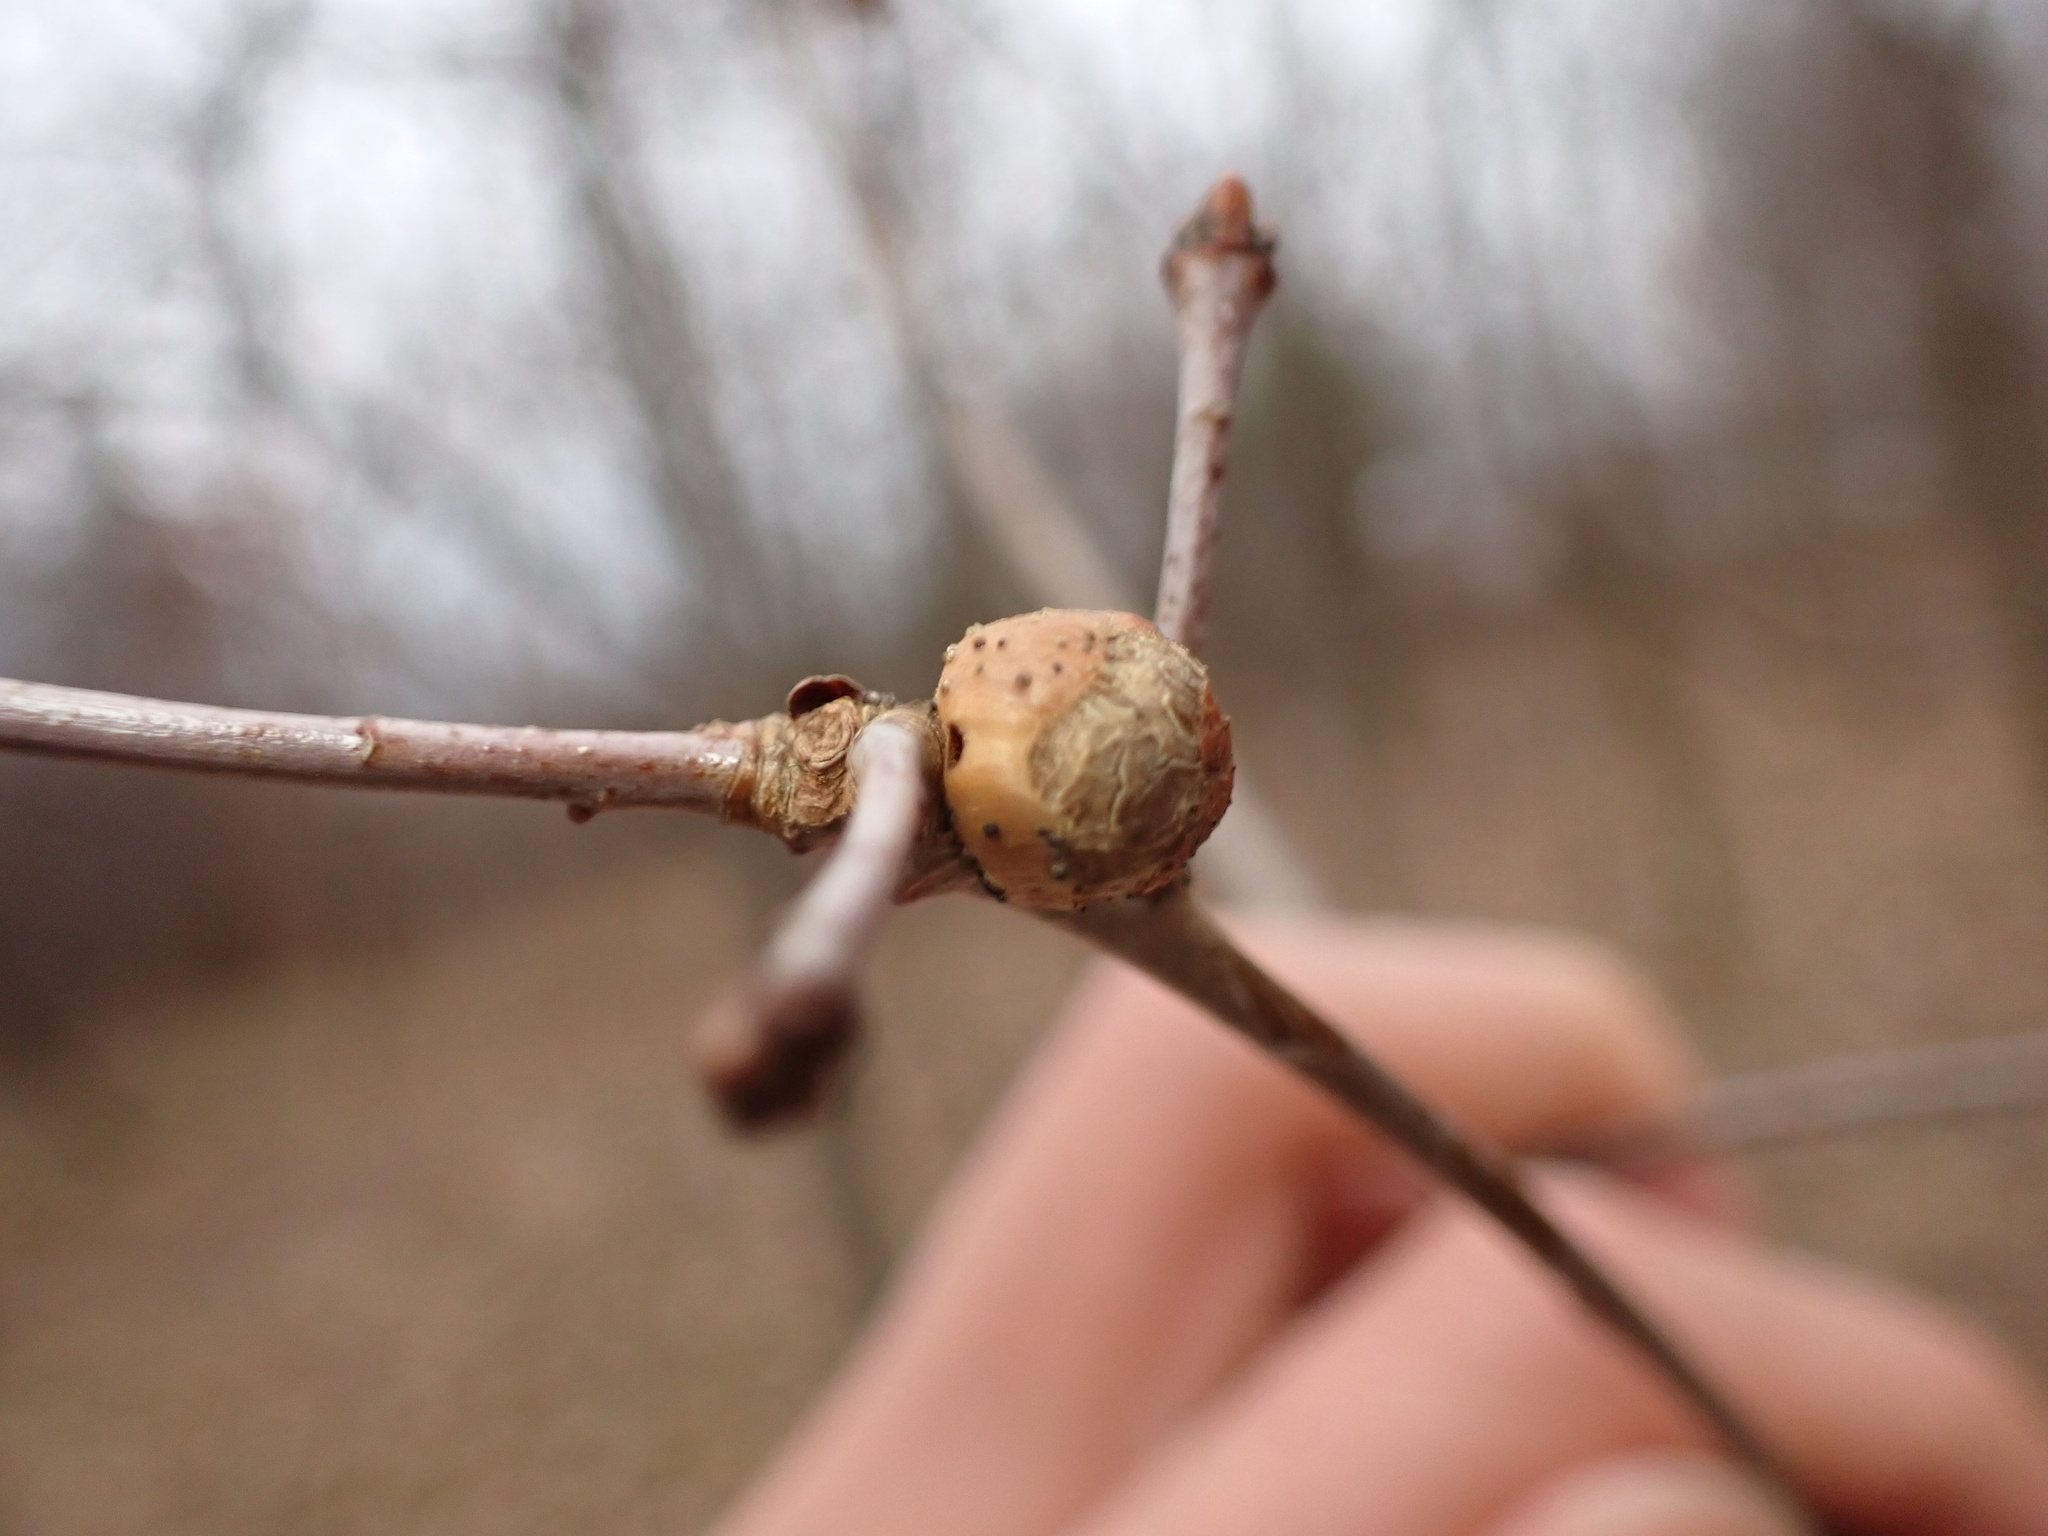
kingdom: Animalia
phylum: Arthropoda
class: Insecta
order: Hymenoptera
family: Cynipidae
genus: Disholcaspis
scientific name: Disholcaspis quercusglobulus
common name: Round bullet gall wasp
